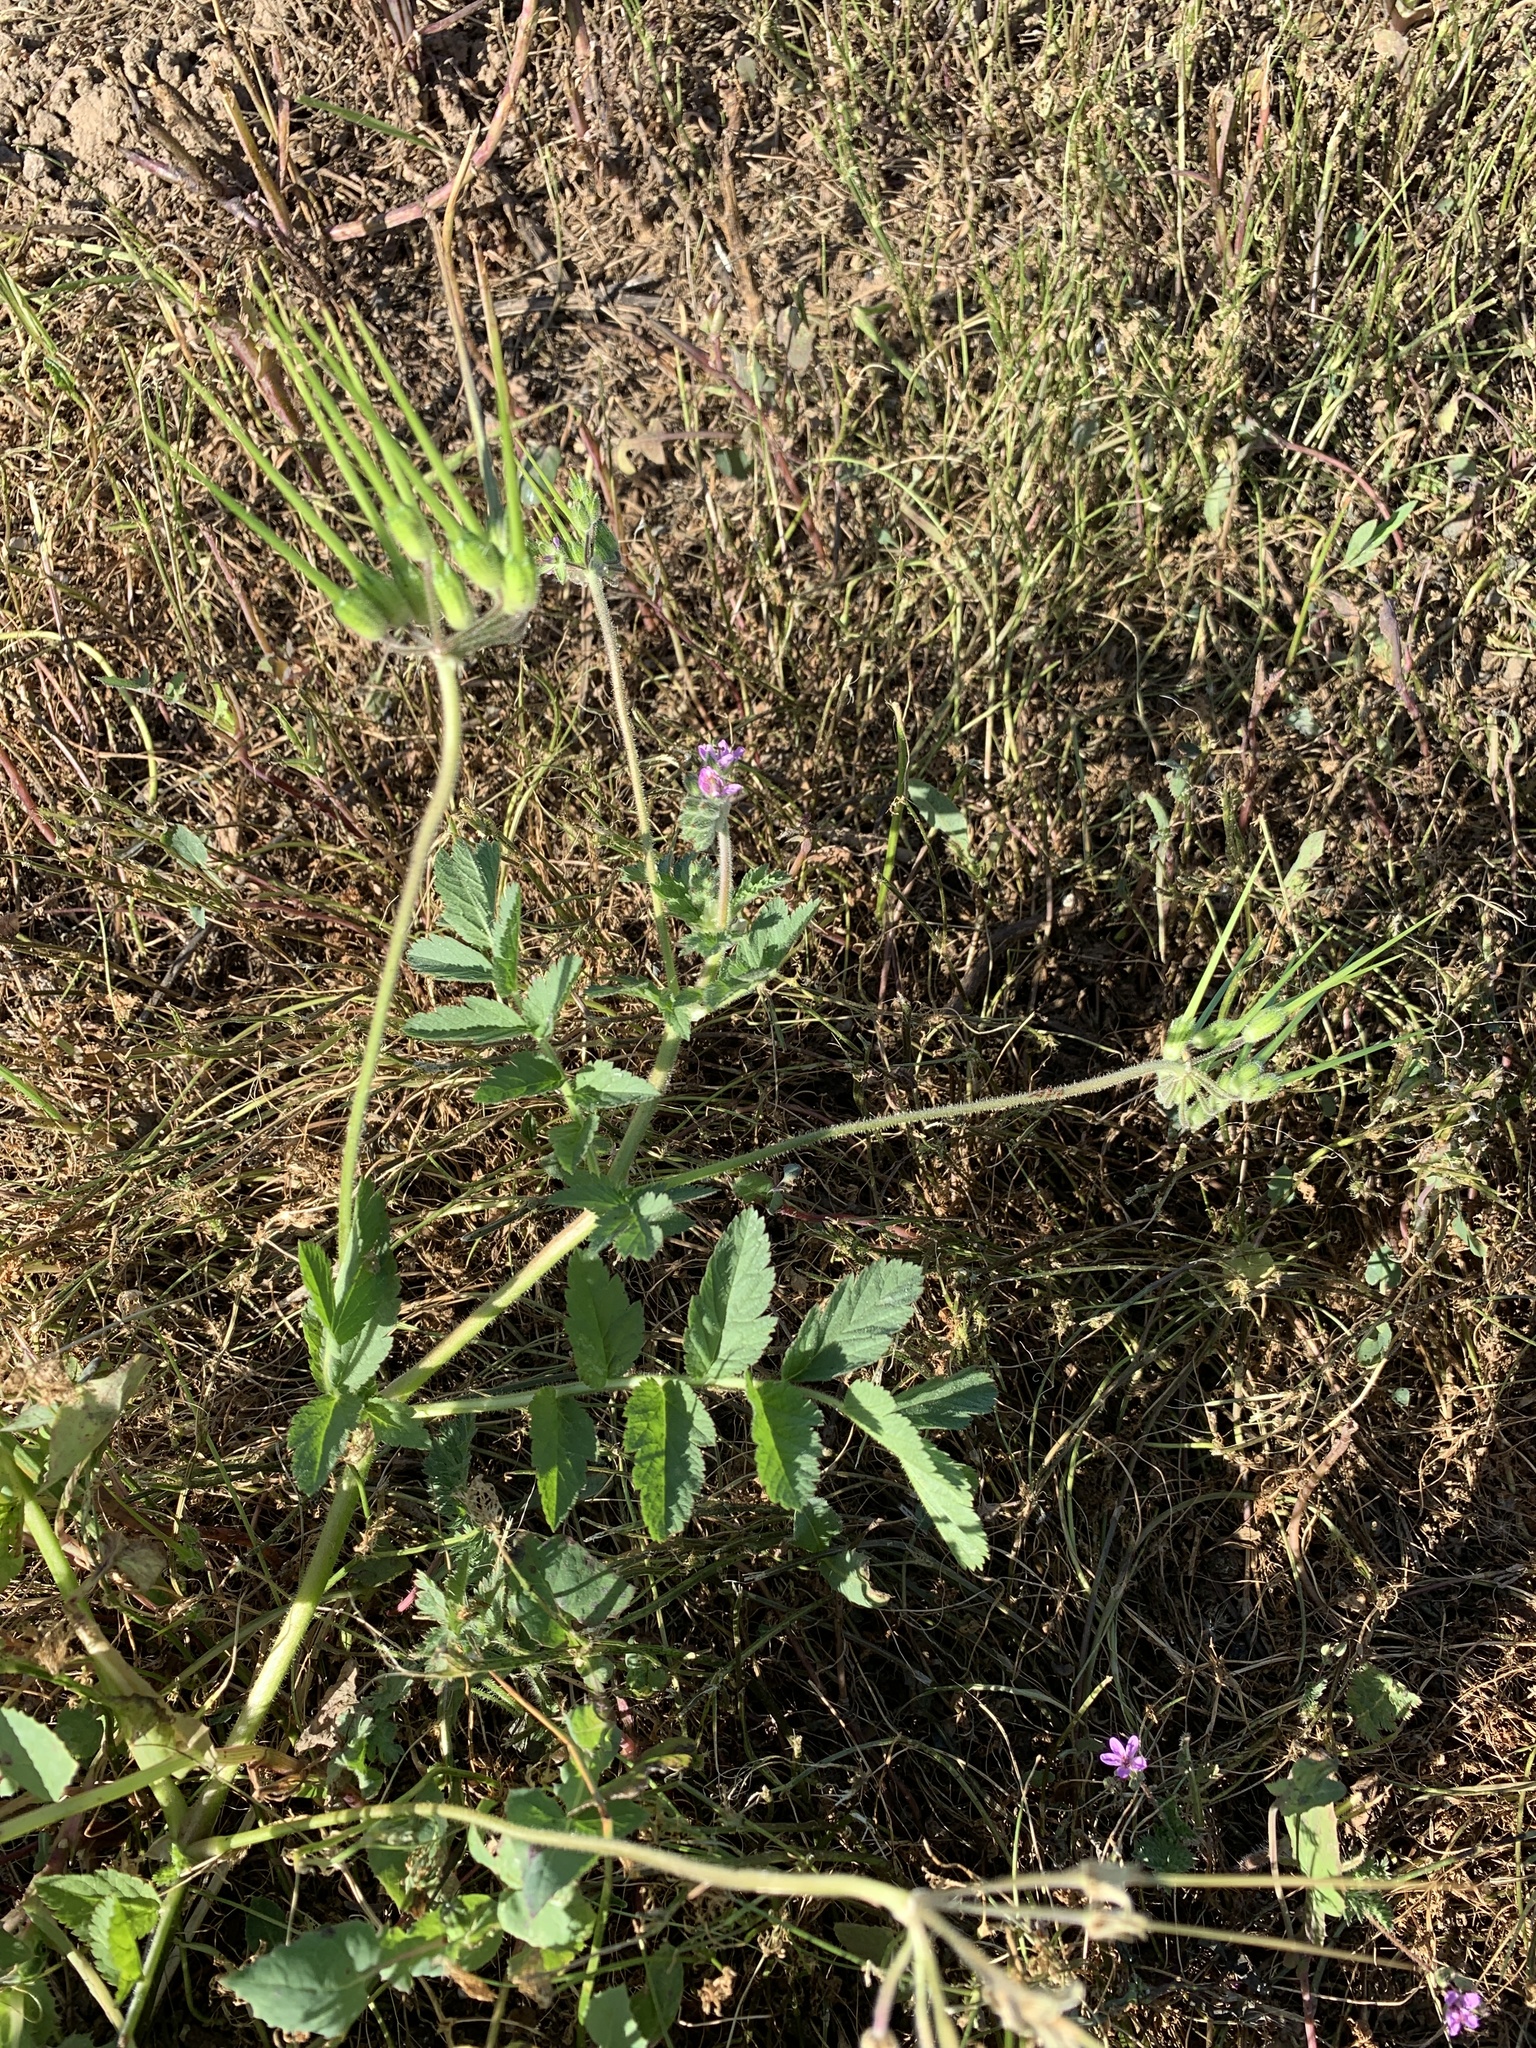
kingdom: Plantae
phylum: Tracheophyta
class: Magnoliopsida
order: Geraniales
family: Geraniaceae
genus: Erodium
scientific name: Erodium moschatum
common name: Musk stork's-bill
